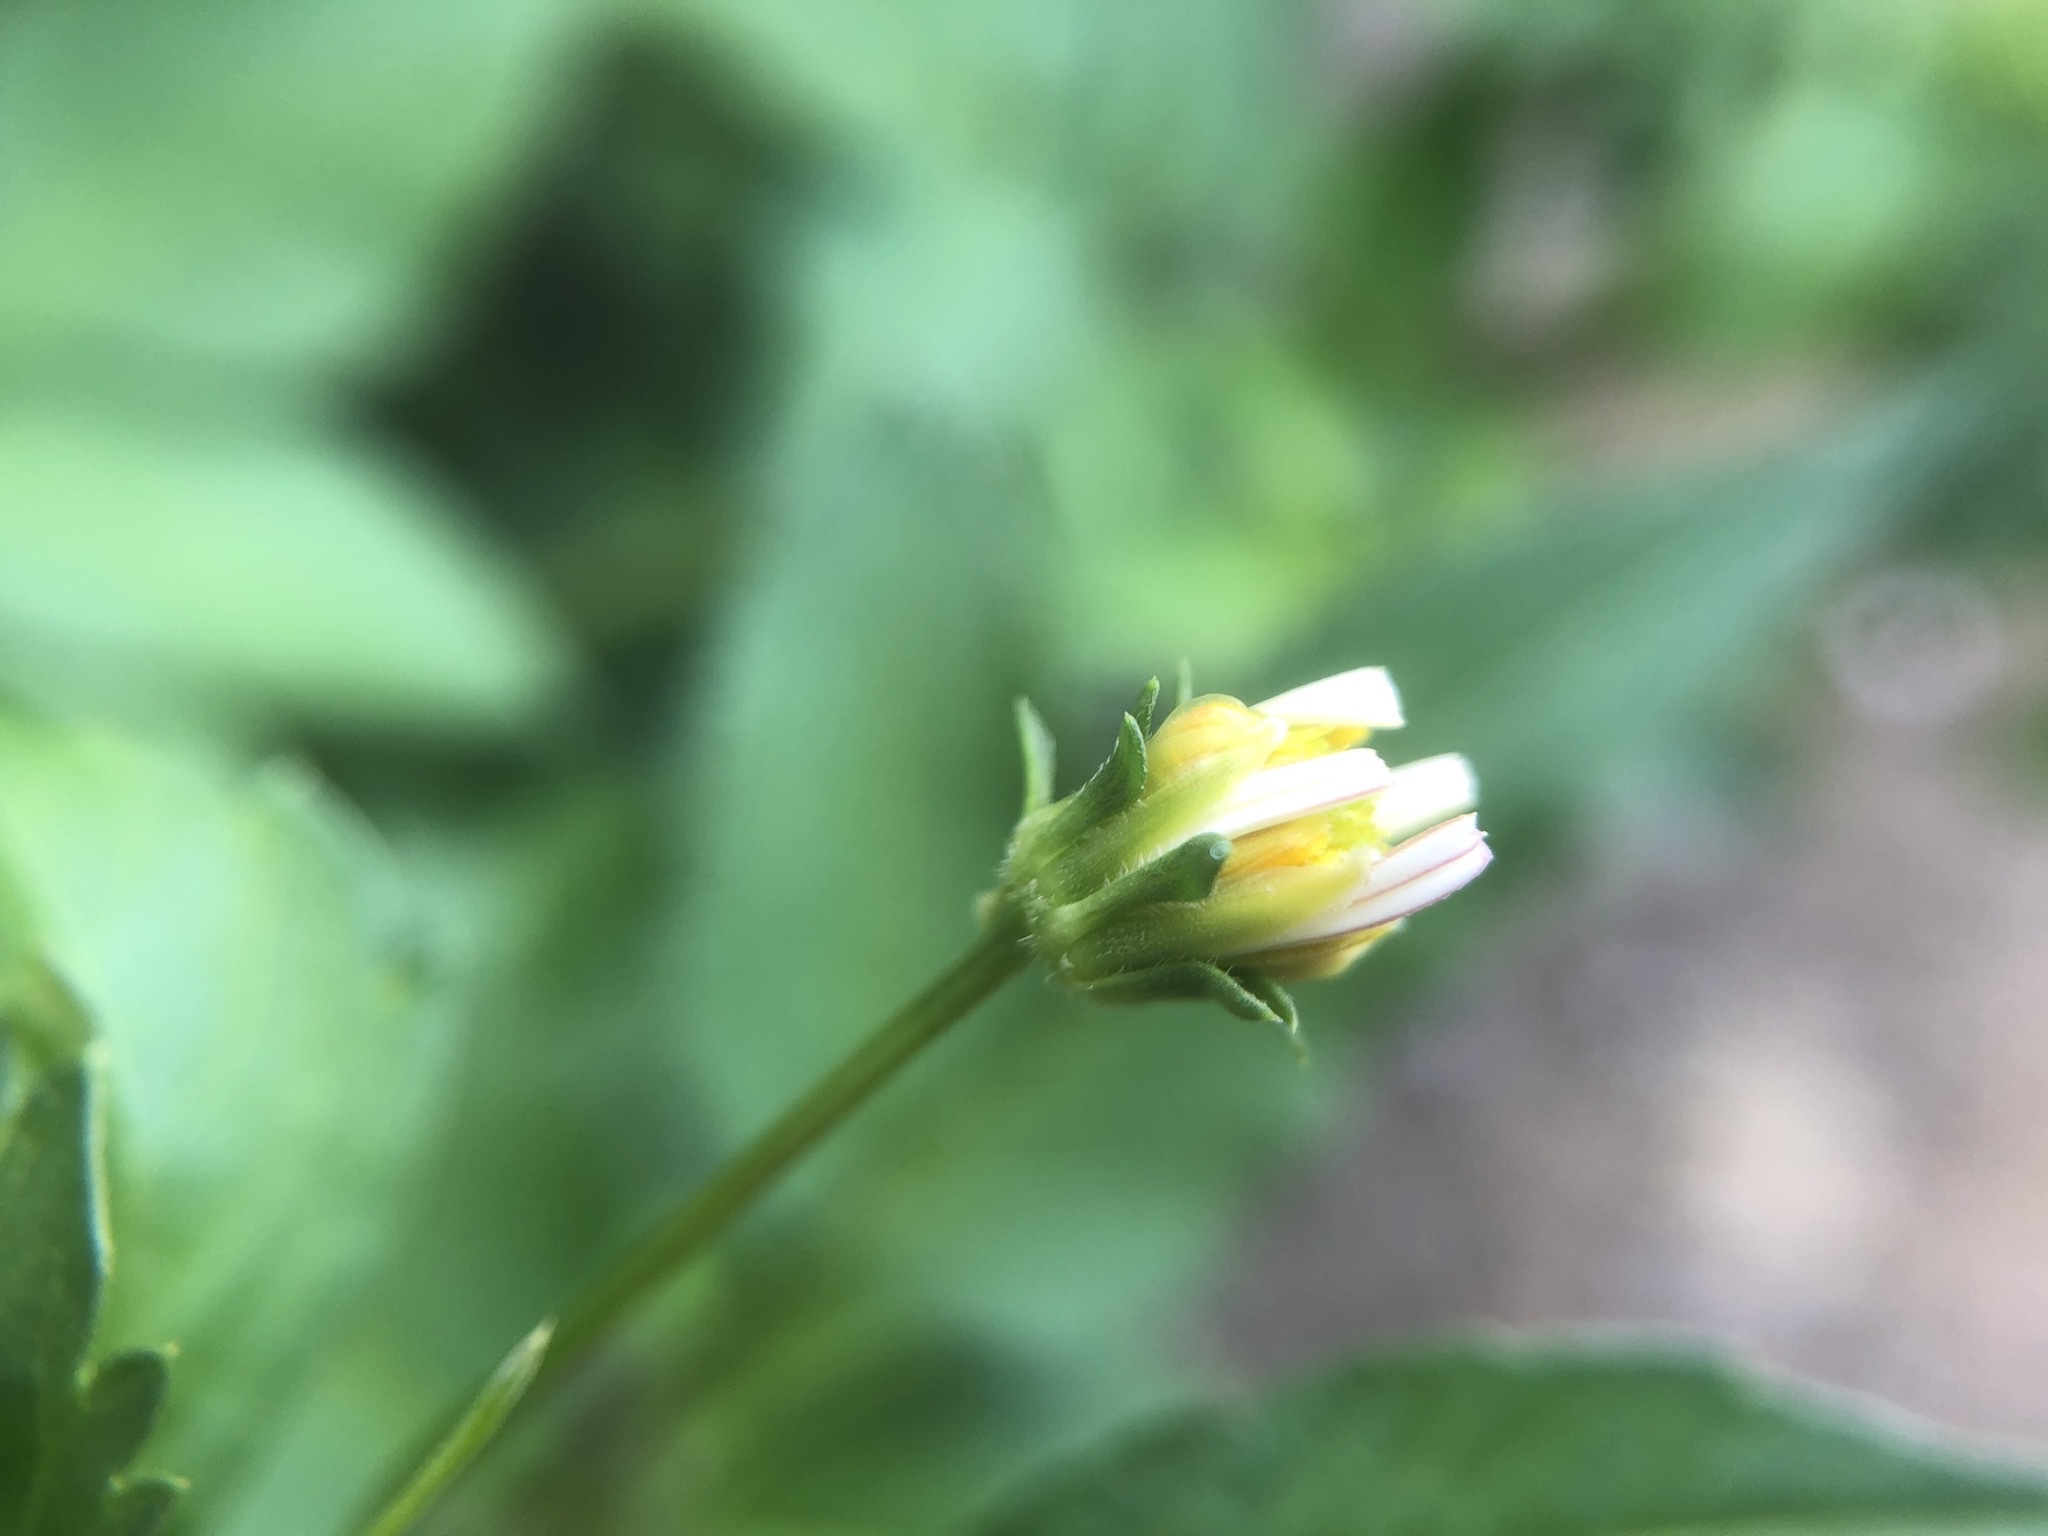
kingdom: Plantae
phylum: Tracheophyta
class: Magnoliopsida
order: Asterales
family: Asteraceae
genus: Bidens
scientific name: Bidens alba
